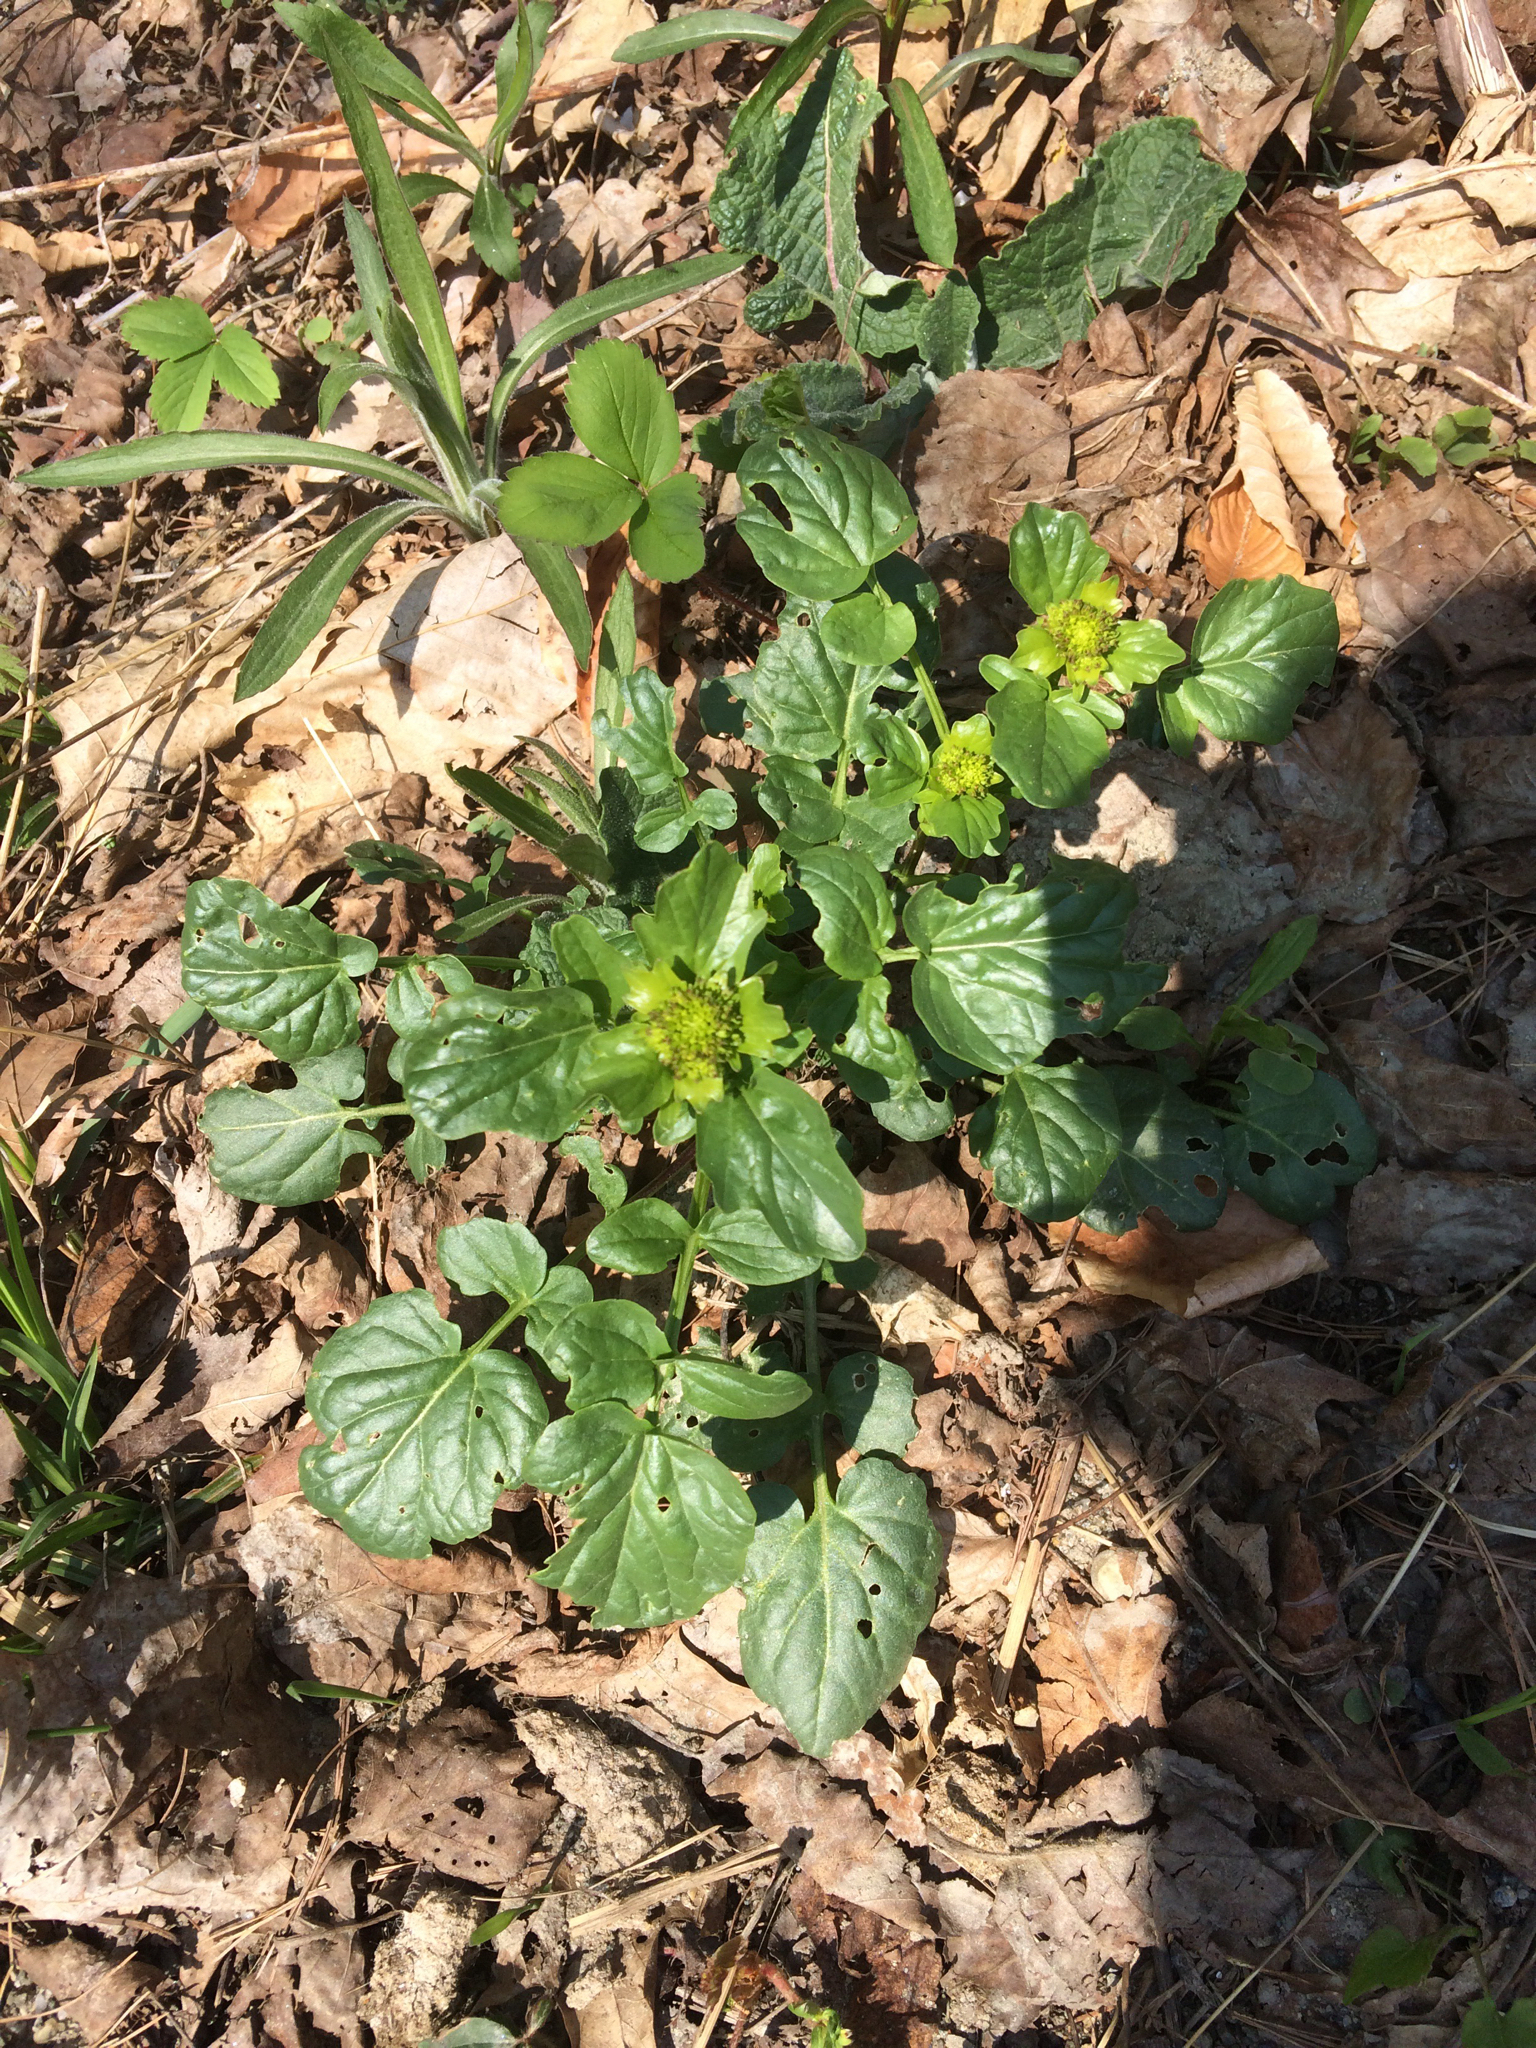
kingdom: Plantae
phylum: Tracheophyta
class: Magnoliopsida
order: Brassicales
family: Brassicaceae
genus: Barbarea
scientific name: Barbarea vulgaris
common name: Cressy-greens
